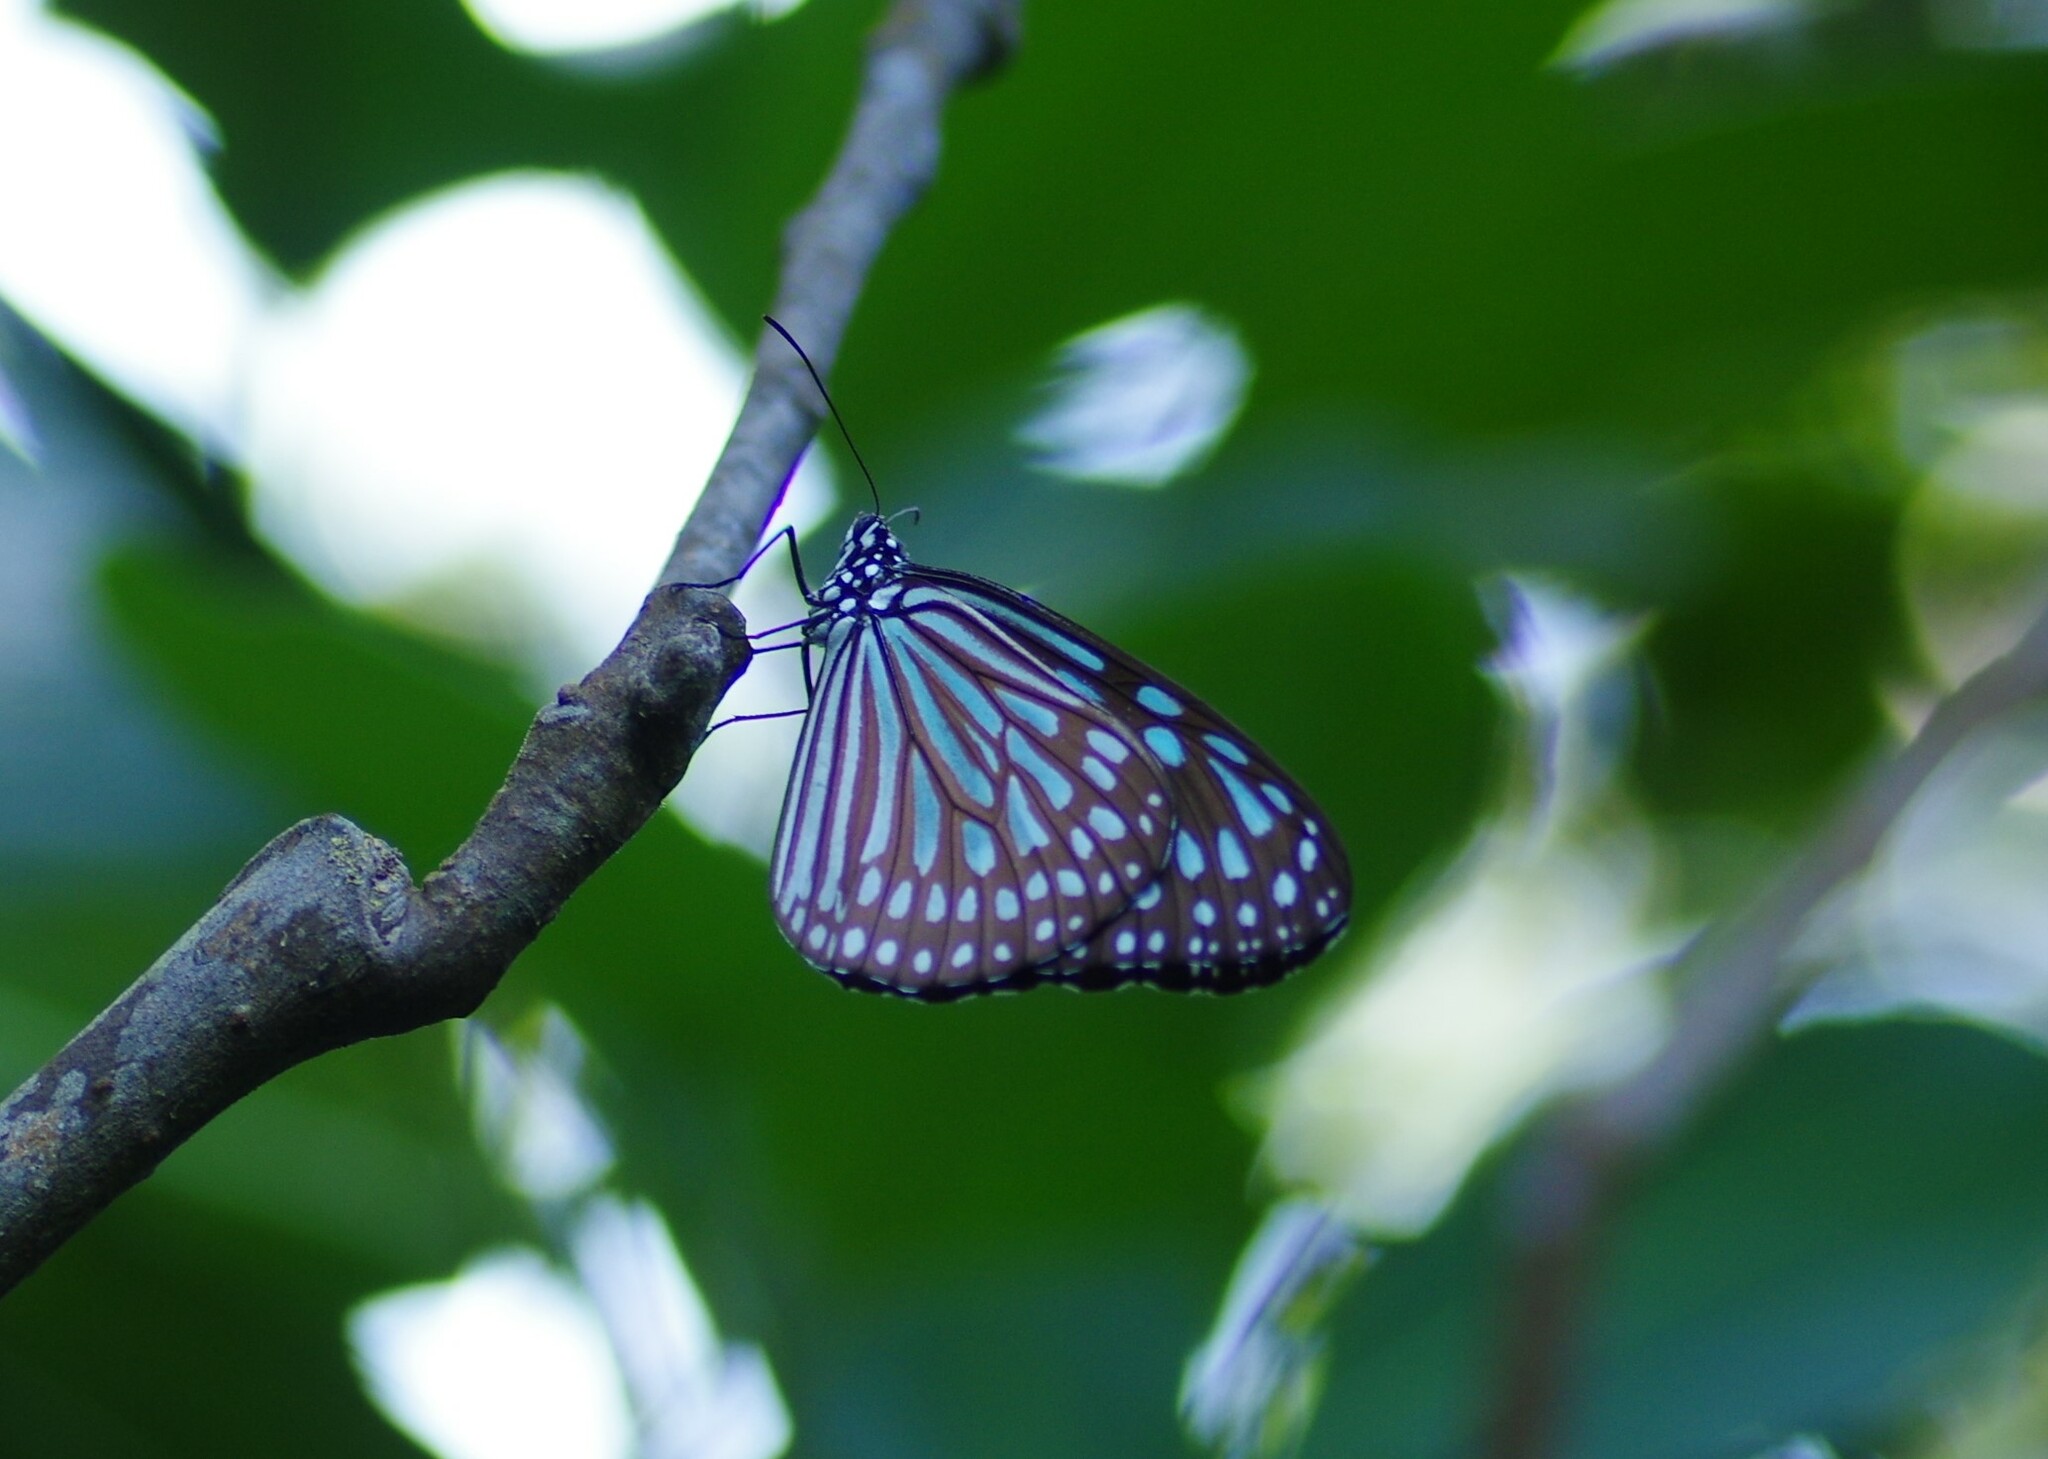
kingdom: Animalia
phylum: Arthropoda
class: Insecta
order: Lepidoptera
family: Nymphalidae
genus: Ideopsis
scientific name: Ideopsis similis
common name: Ceylon blue glassy tiger
